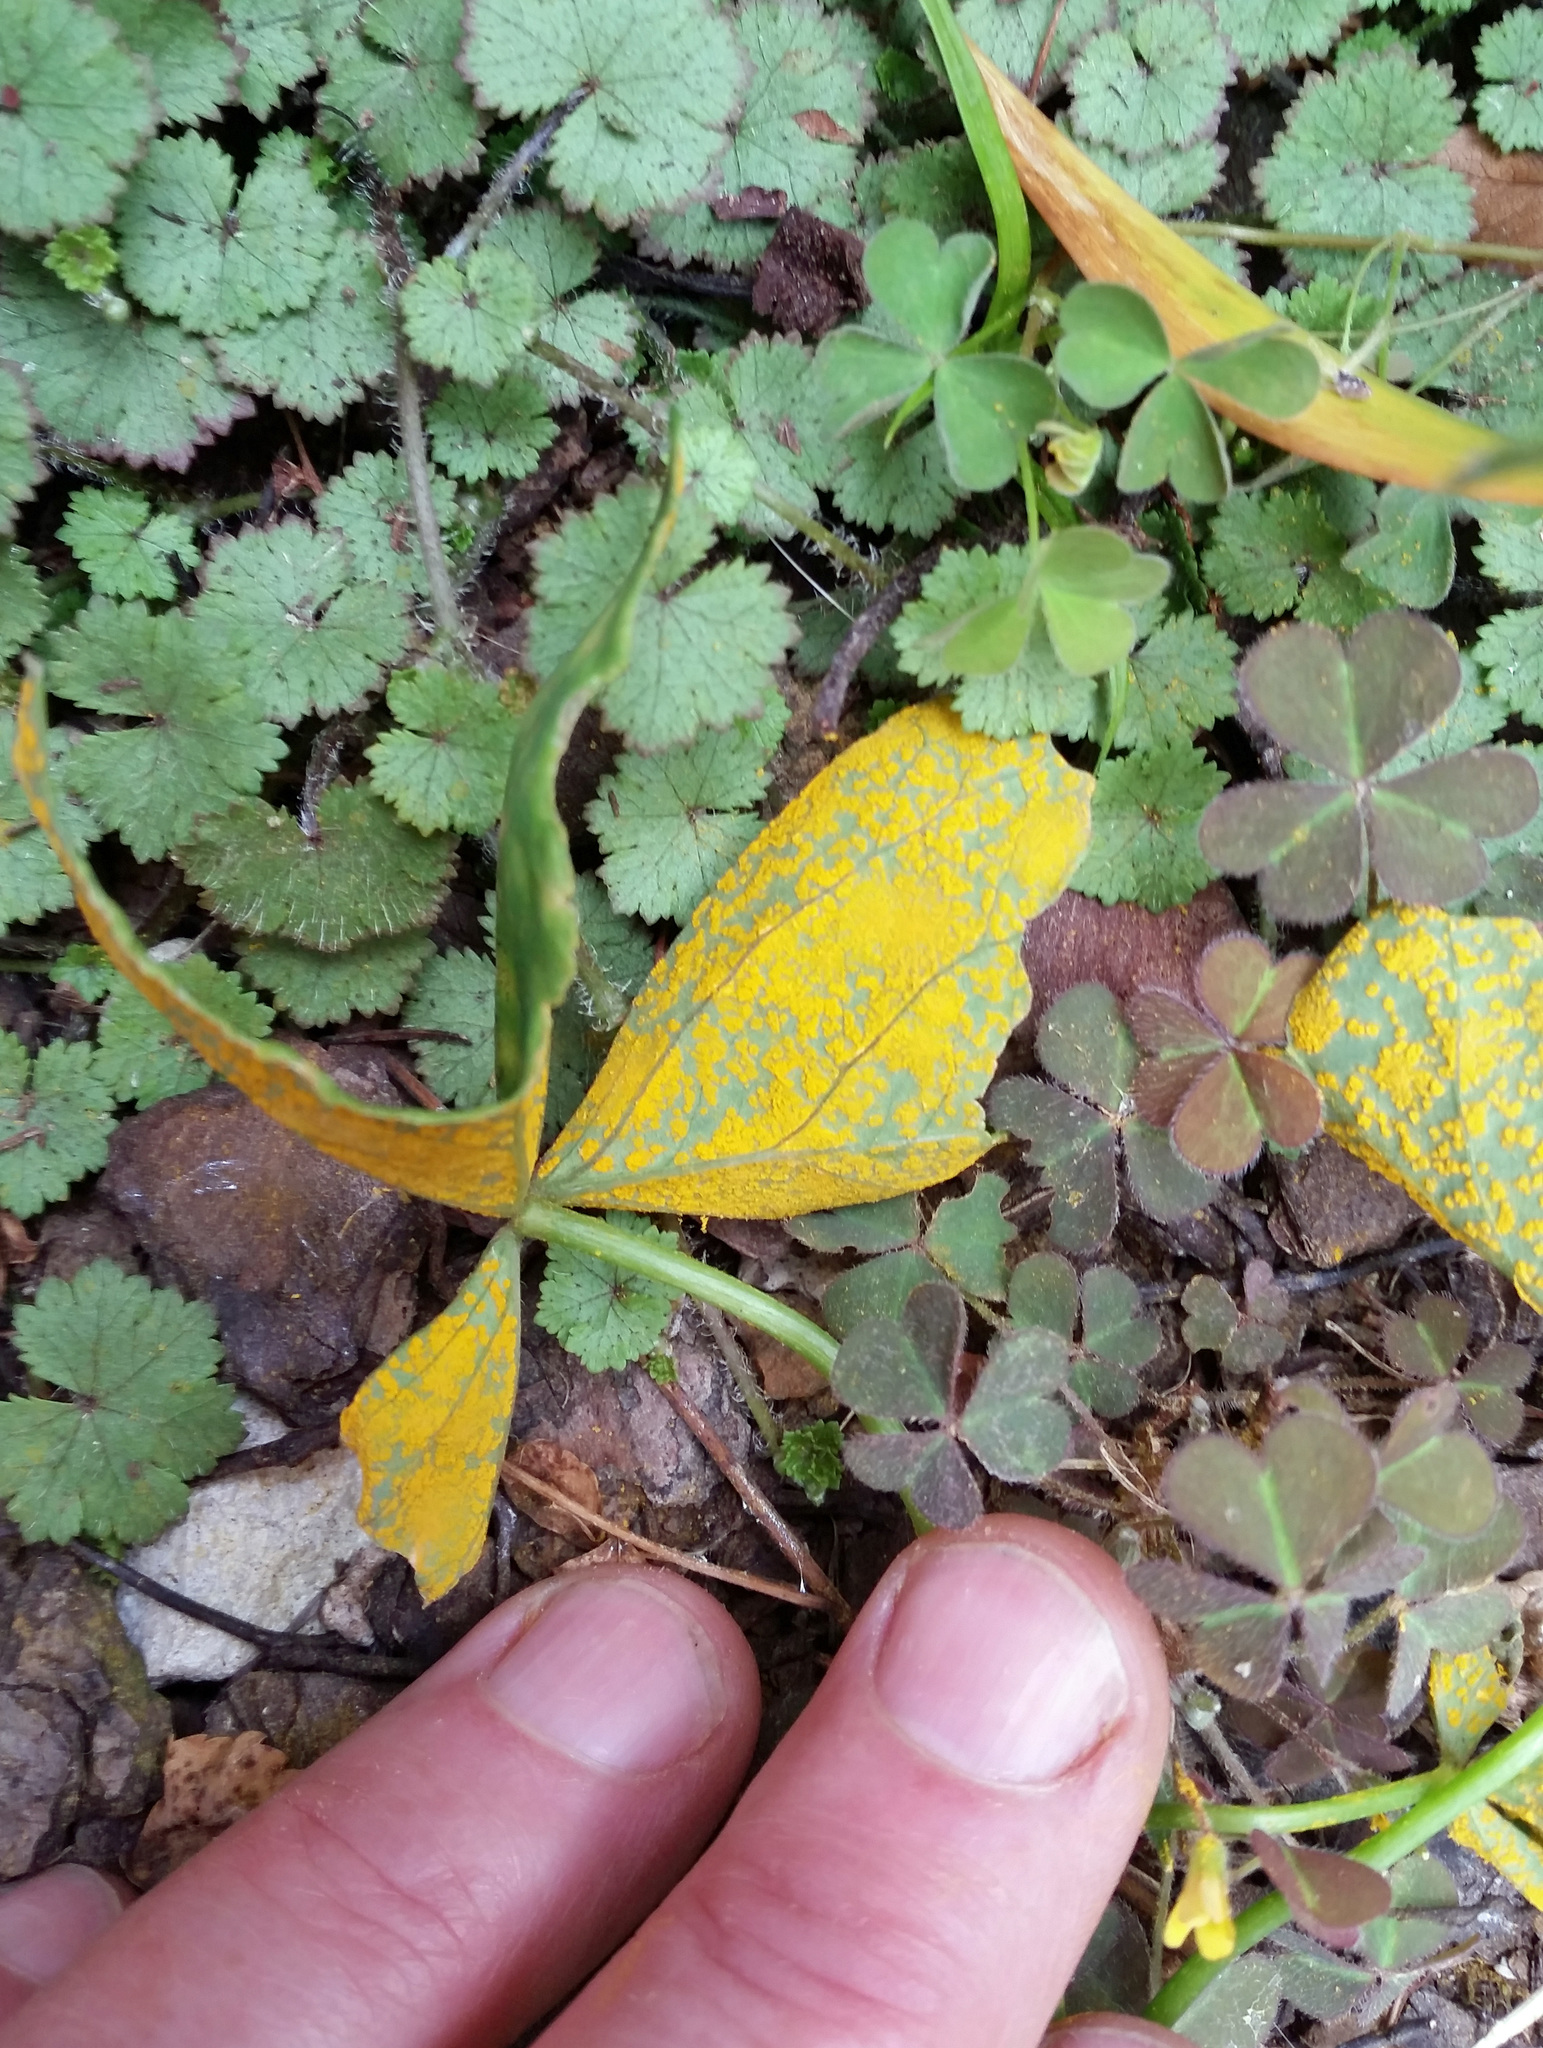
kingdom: Fungi
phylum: Basidiomycota
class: Pucciniomycetes
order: Pucciniales
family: Pucciniaceae
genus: Puccinia
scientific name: Puccinia oxalidis
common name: Oxalis rust
